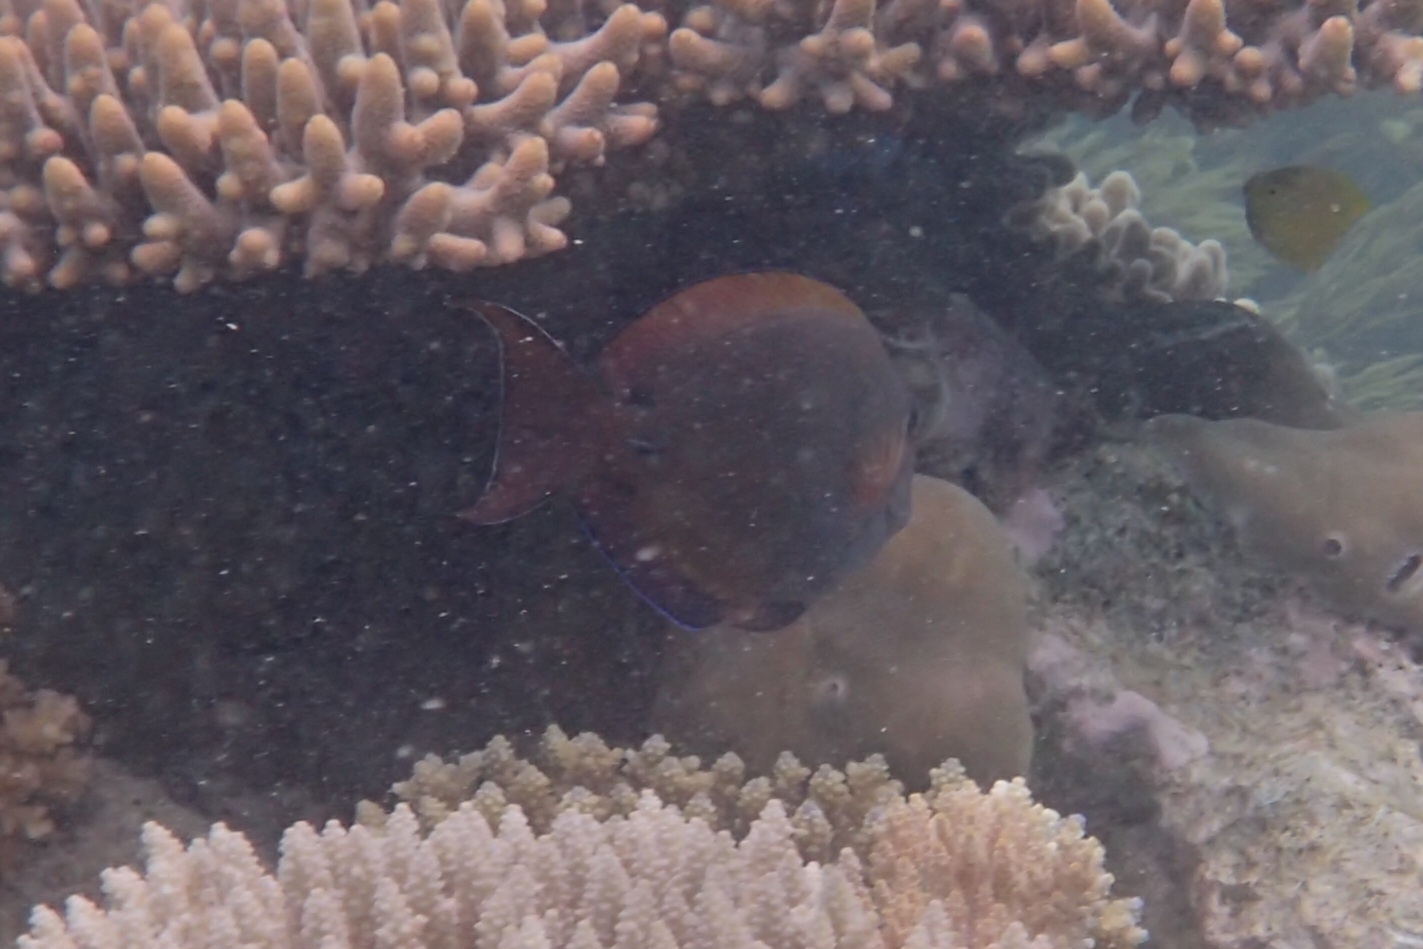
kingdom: Animalia
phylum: Chordata
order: Perciformes
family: Acanthuridae
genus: Acanthurus
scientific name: Acanthurus nigrofuscus
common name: Blackspot surgeonfish
